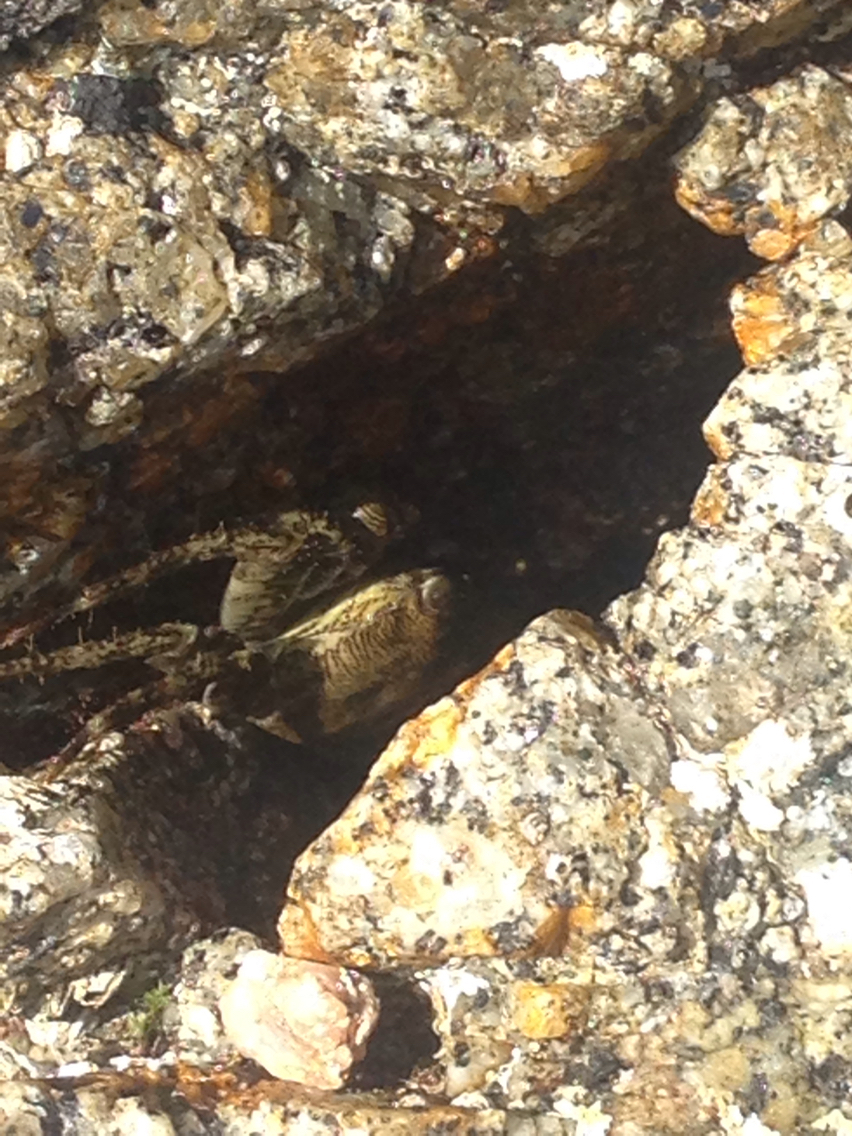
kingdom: Animalia
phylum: Arthropoda
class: Malacostraca
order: Decapoda
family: Grapsidae
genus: Pachygrapsus
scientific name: Pachygrapsus marmoratus
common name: Marbled rock crab
